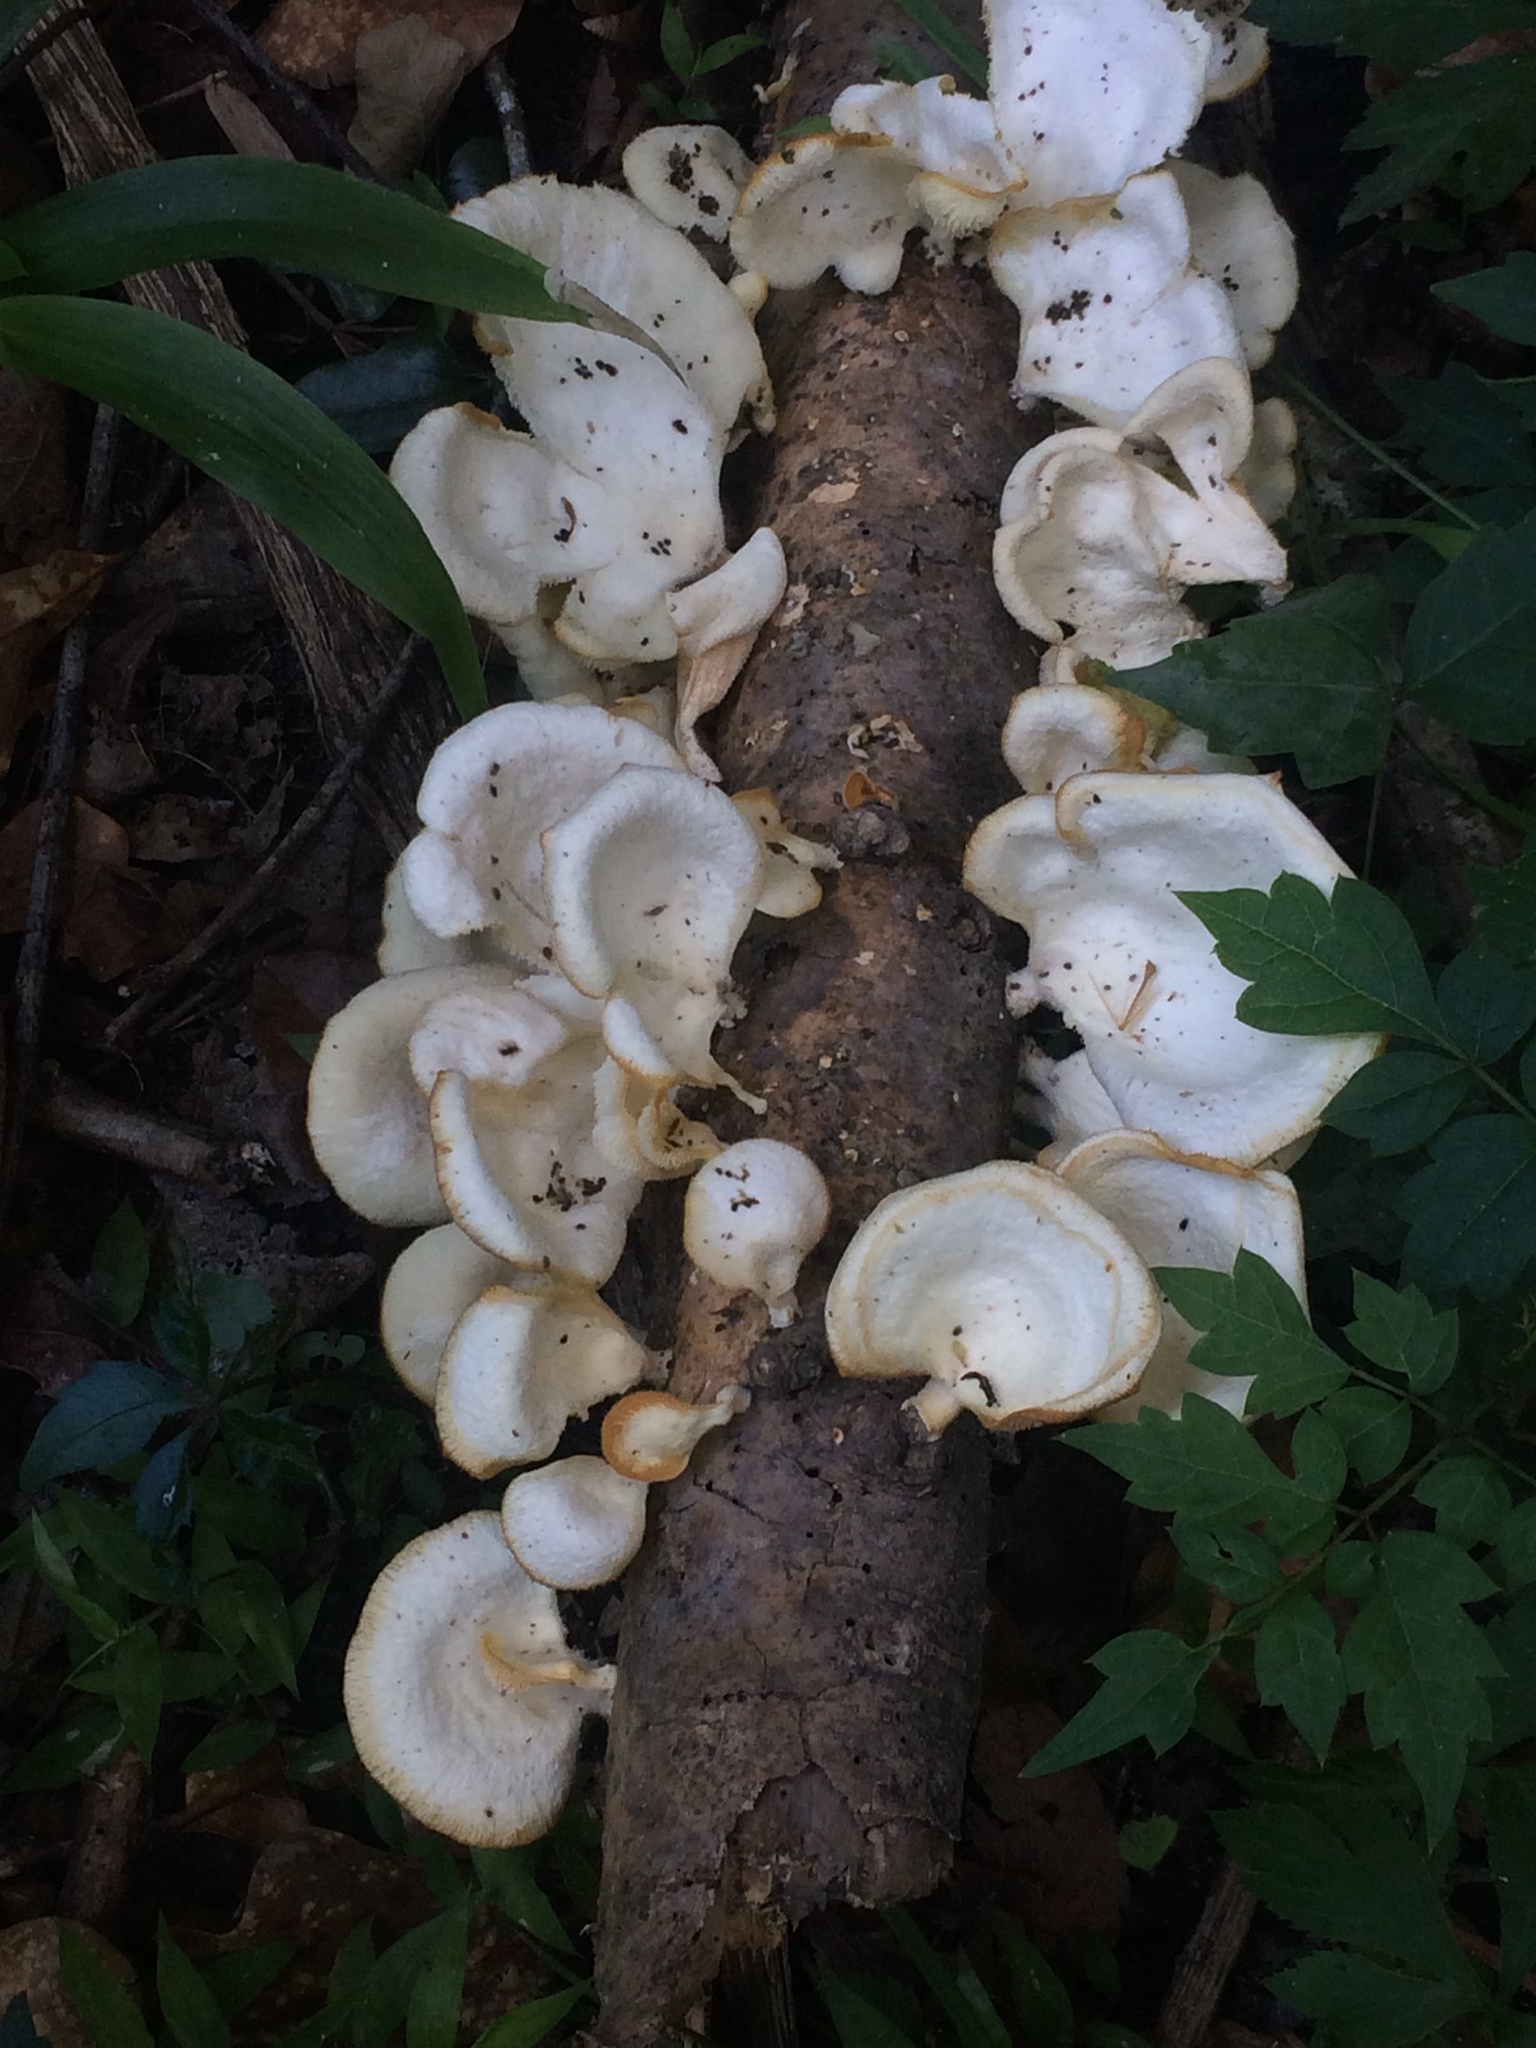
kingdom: Fungi
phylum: Basidiomycota
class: Agaricomycetes
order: Polyporales
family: Polyporaceae
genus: Favolus
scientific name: Favolus tenuiculus
